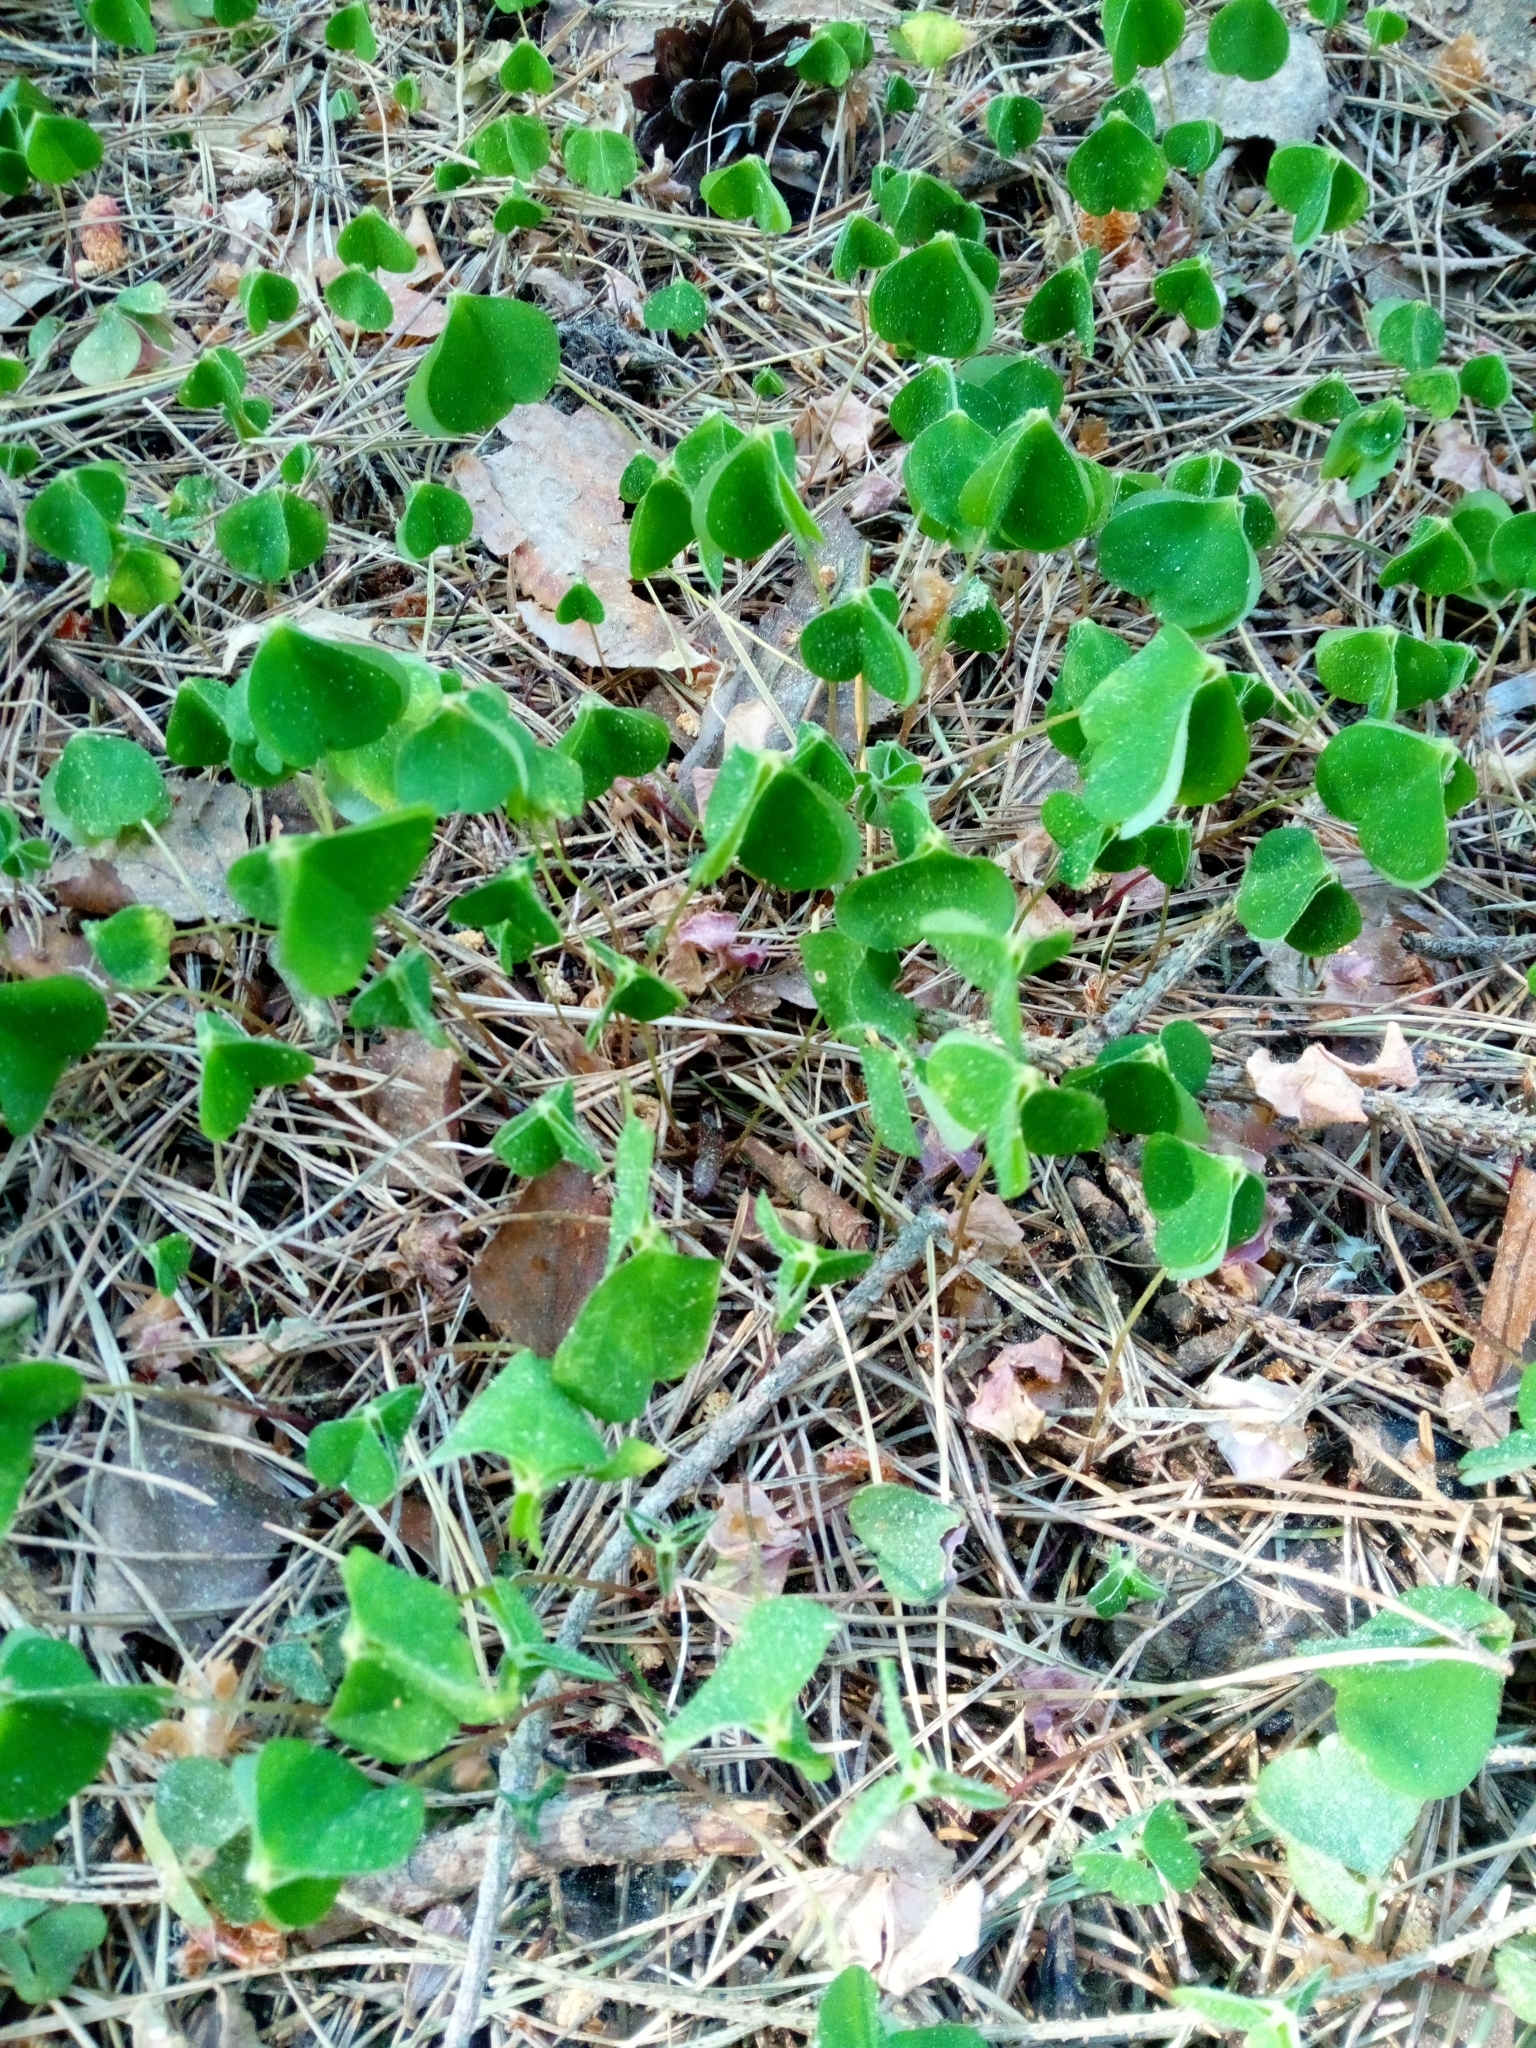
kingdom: Plantae
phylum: Tracheophyta
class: Magnoliopsida
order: Oxalidales
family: Oxalidaceae
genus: Oxalis
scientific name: Oxalis acetosella
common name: Wood-sorrel
